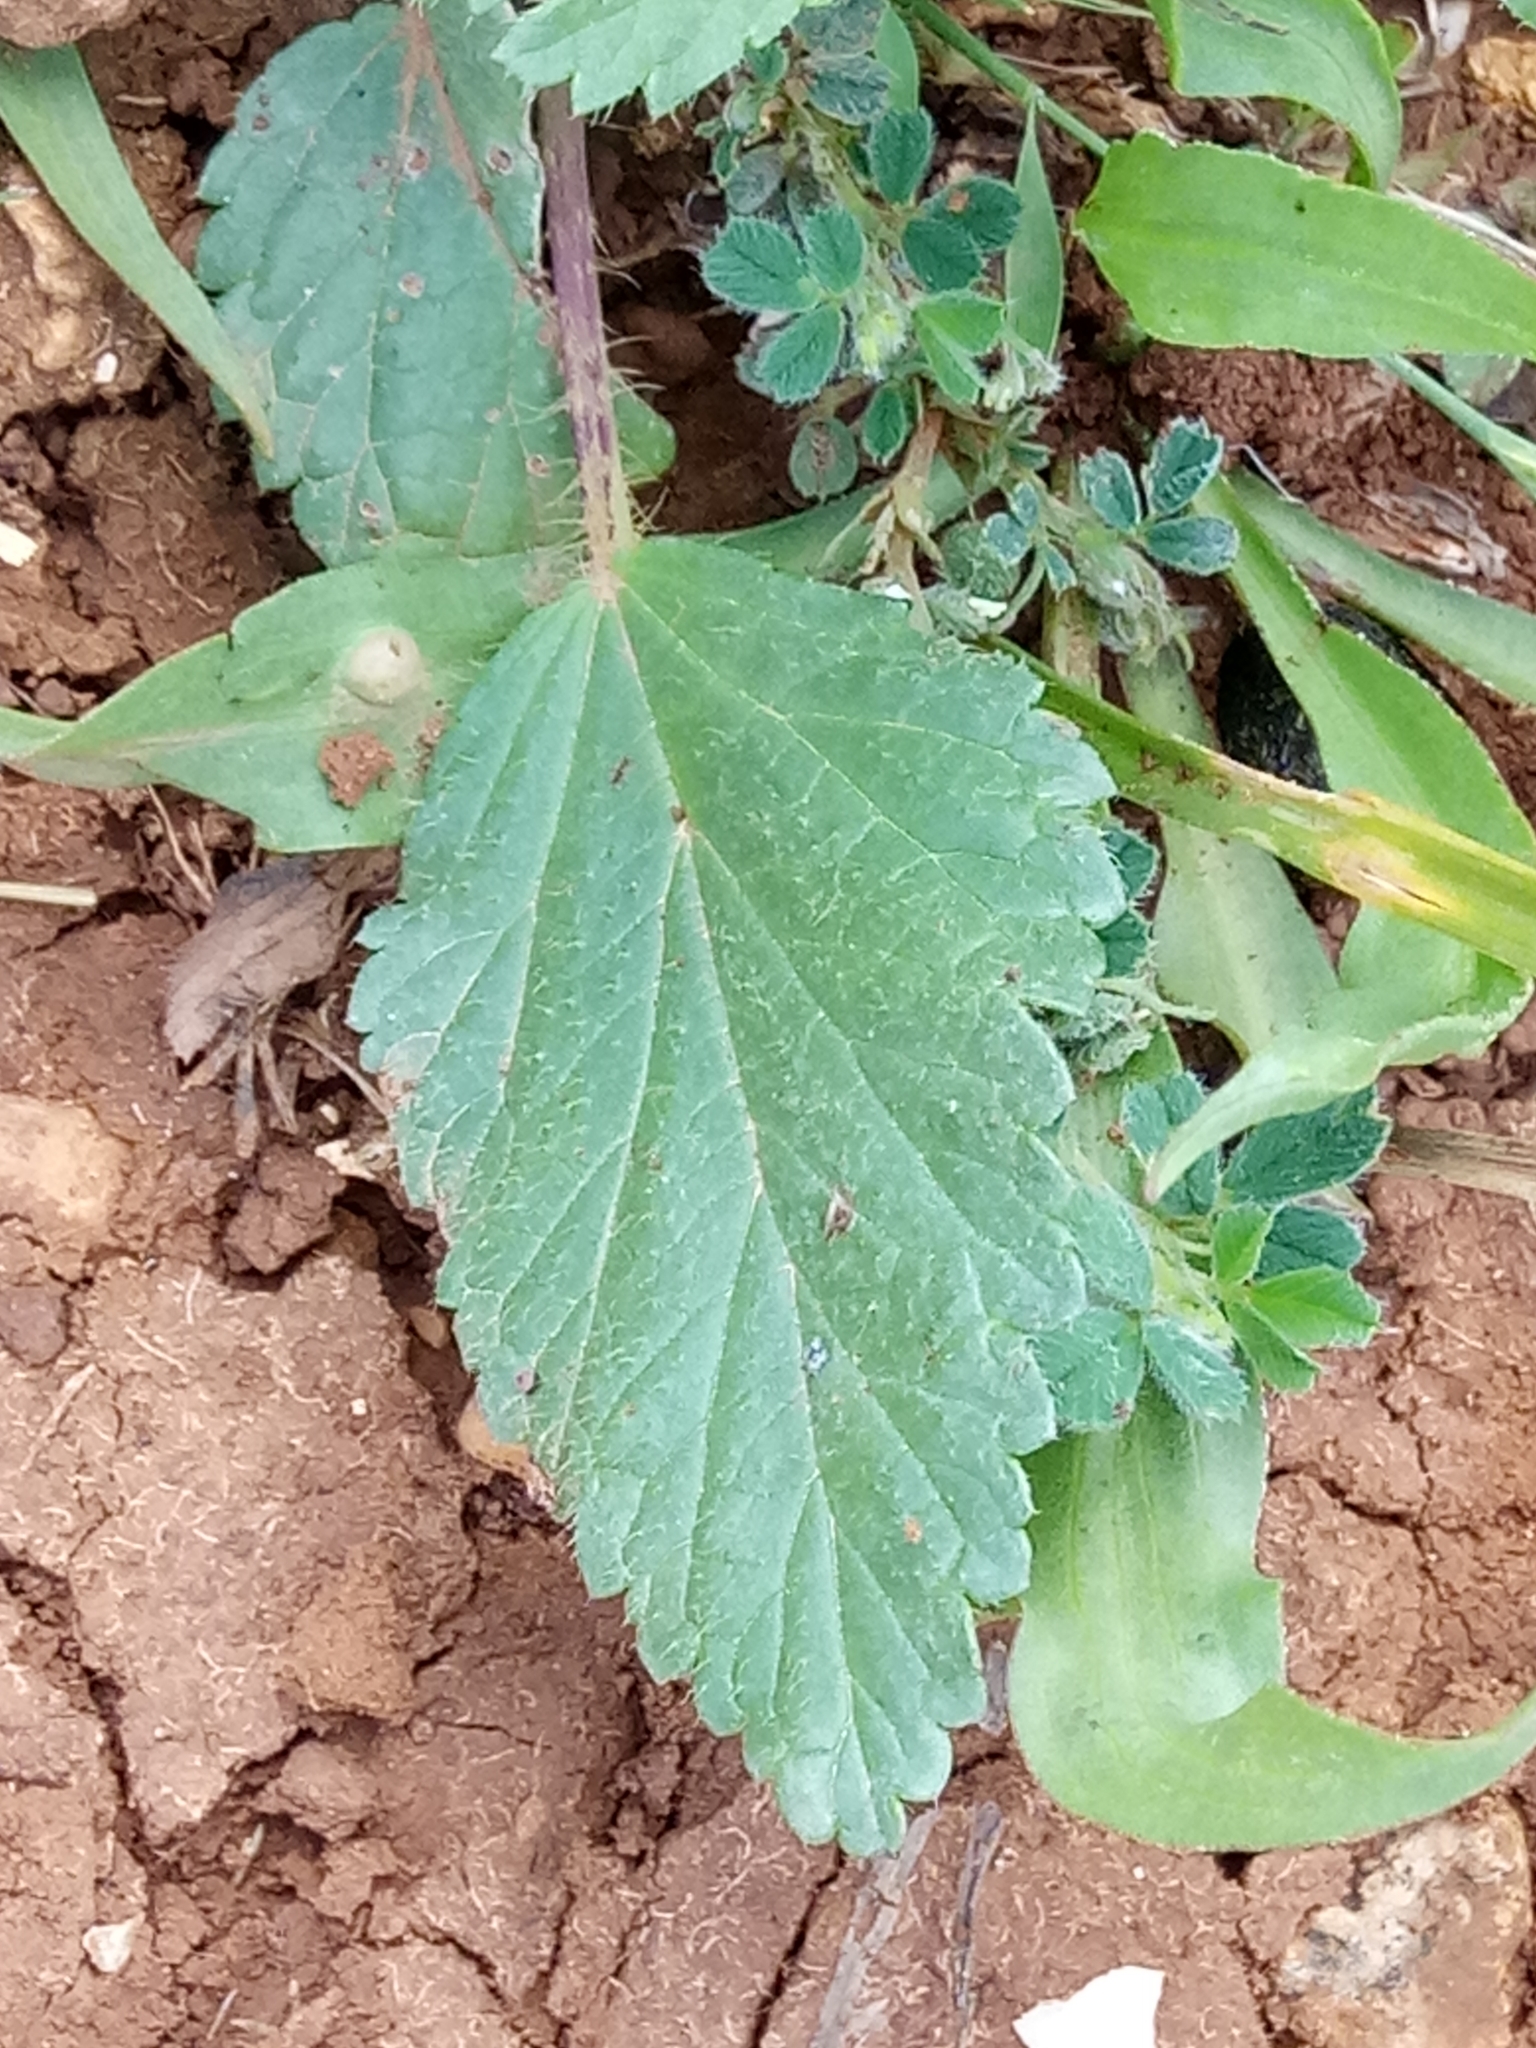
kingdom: Plantae
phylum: Tracheophyta
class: Magnoliopsida
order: Malvales
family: Malvaceae
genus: Malva
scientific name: Malva trimestris
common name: Royal mallow
